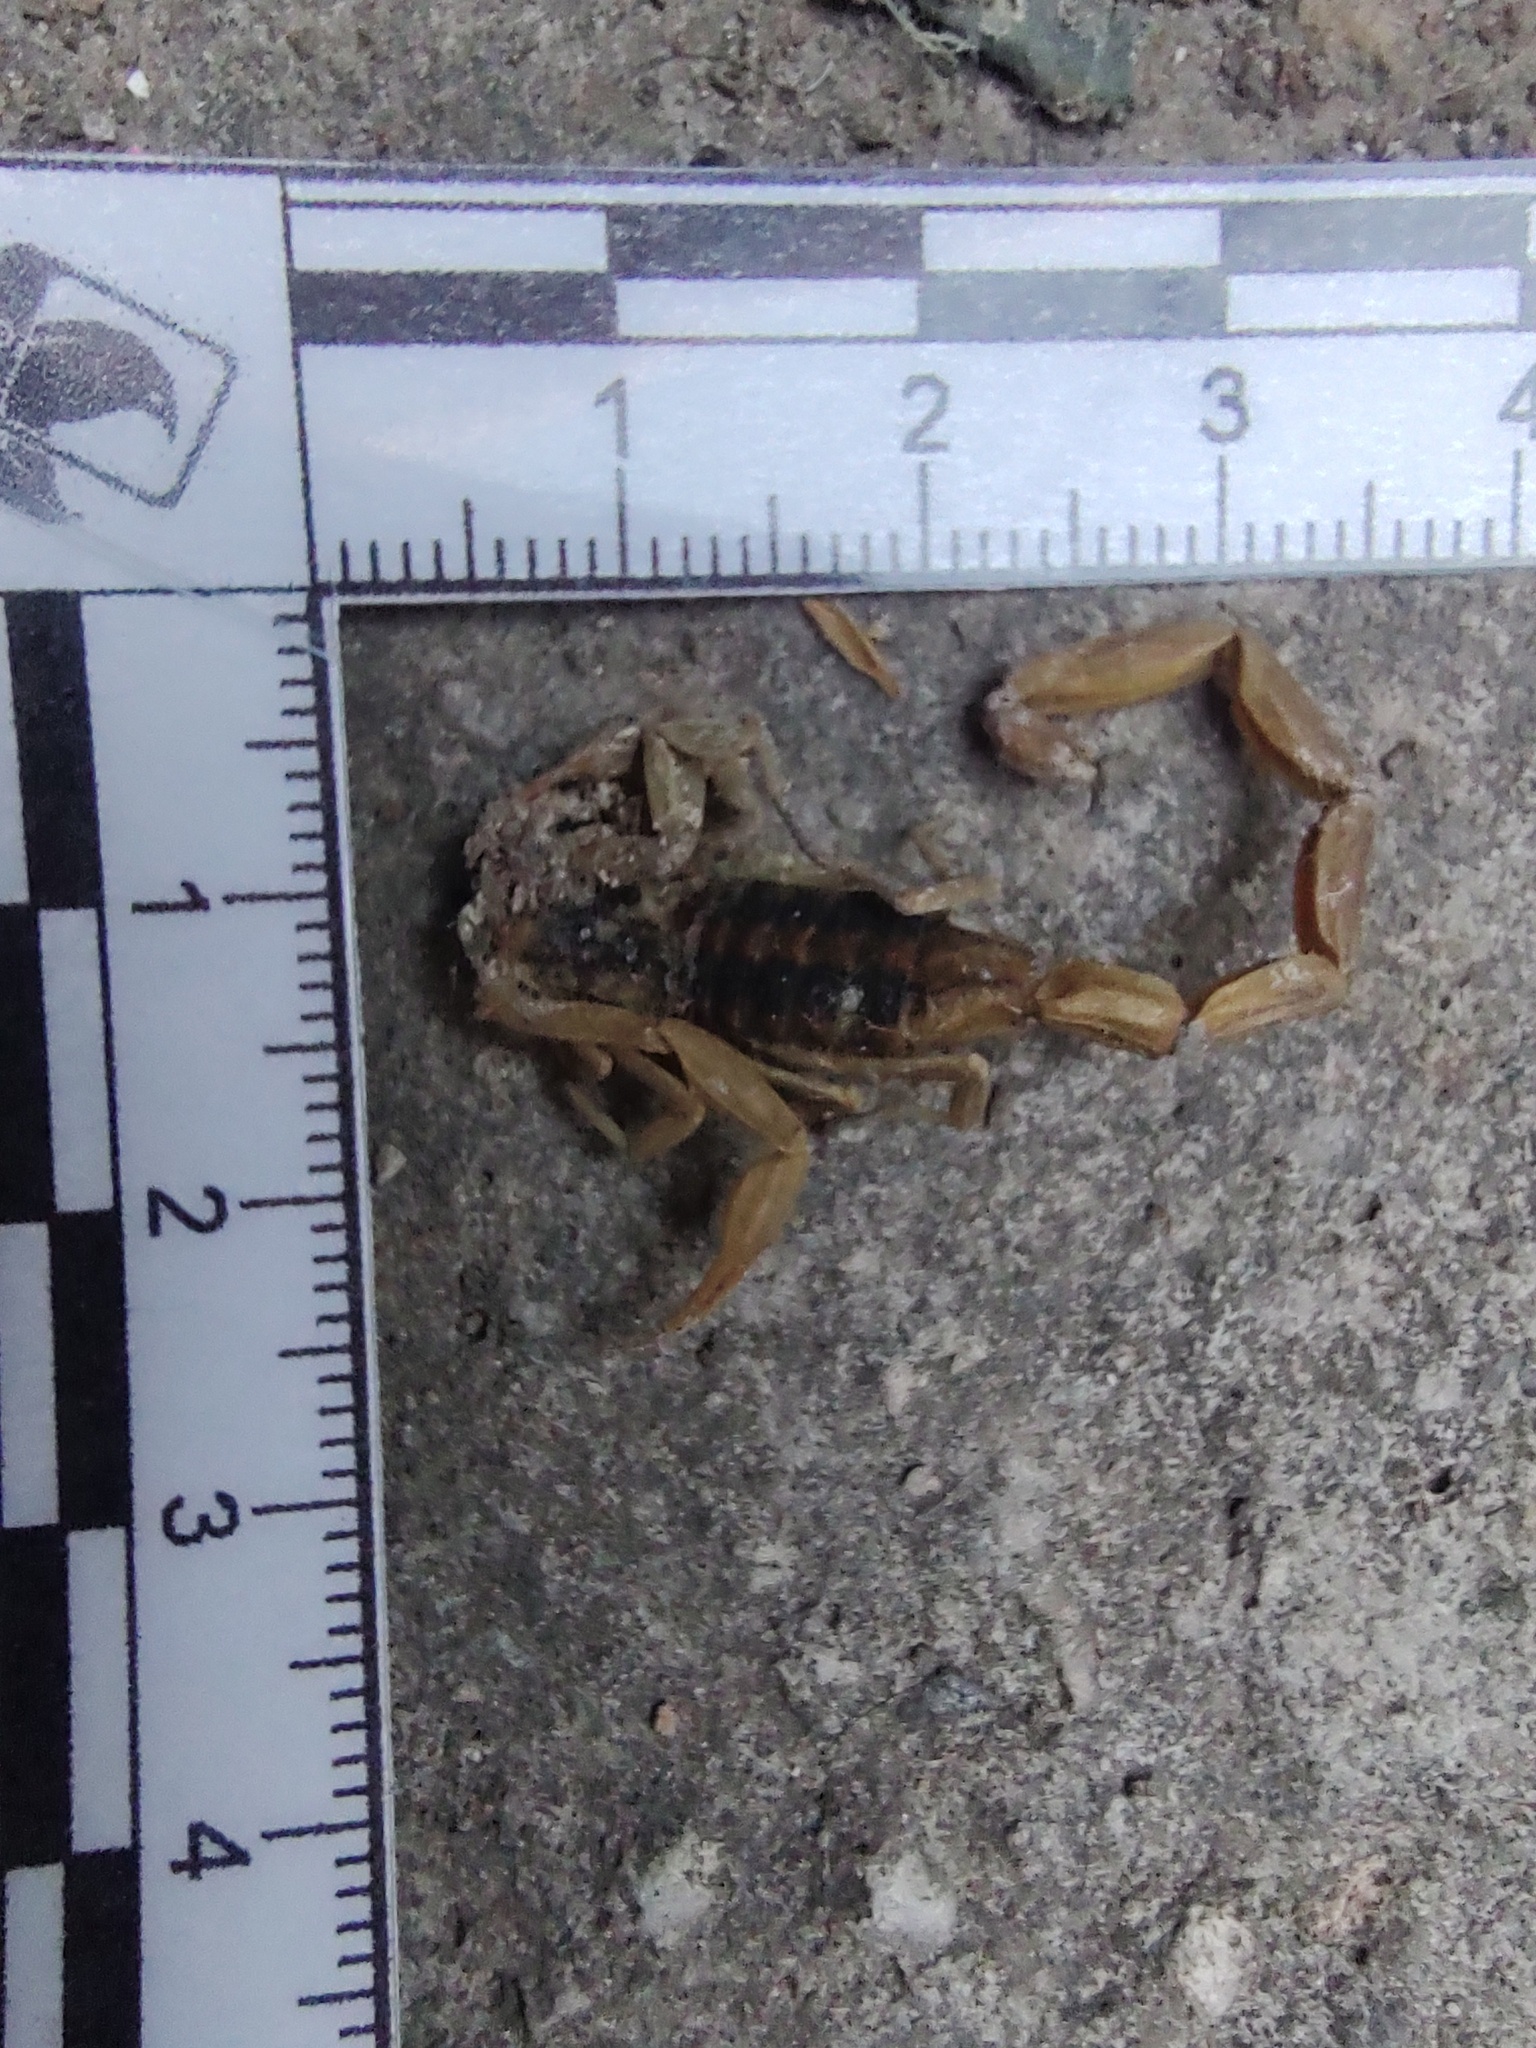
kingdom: Animalia
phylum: Arthropoda
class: Arachnida
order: Scorpiones
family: Buthidae
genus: Centruroides
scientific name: Centruroides ornatus
